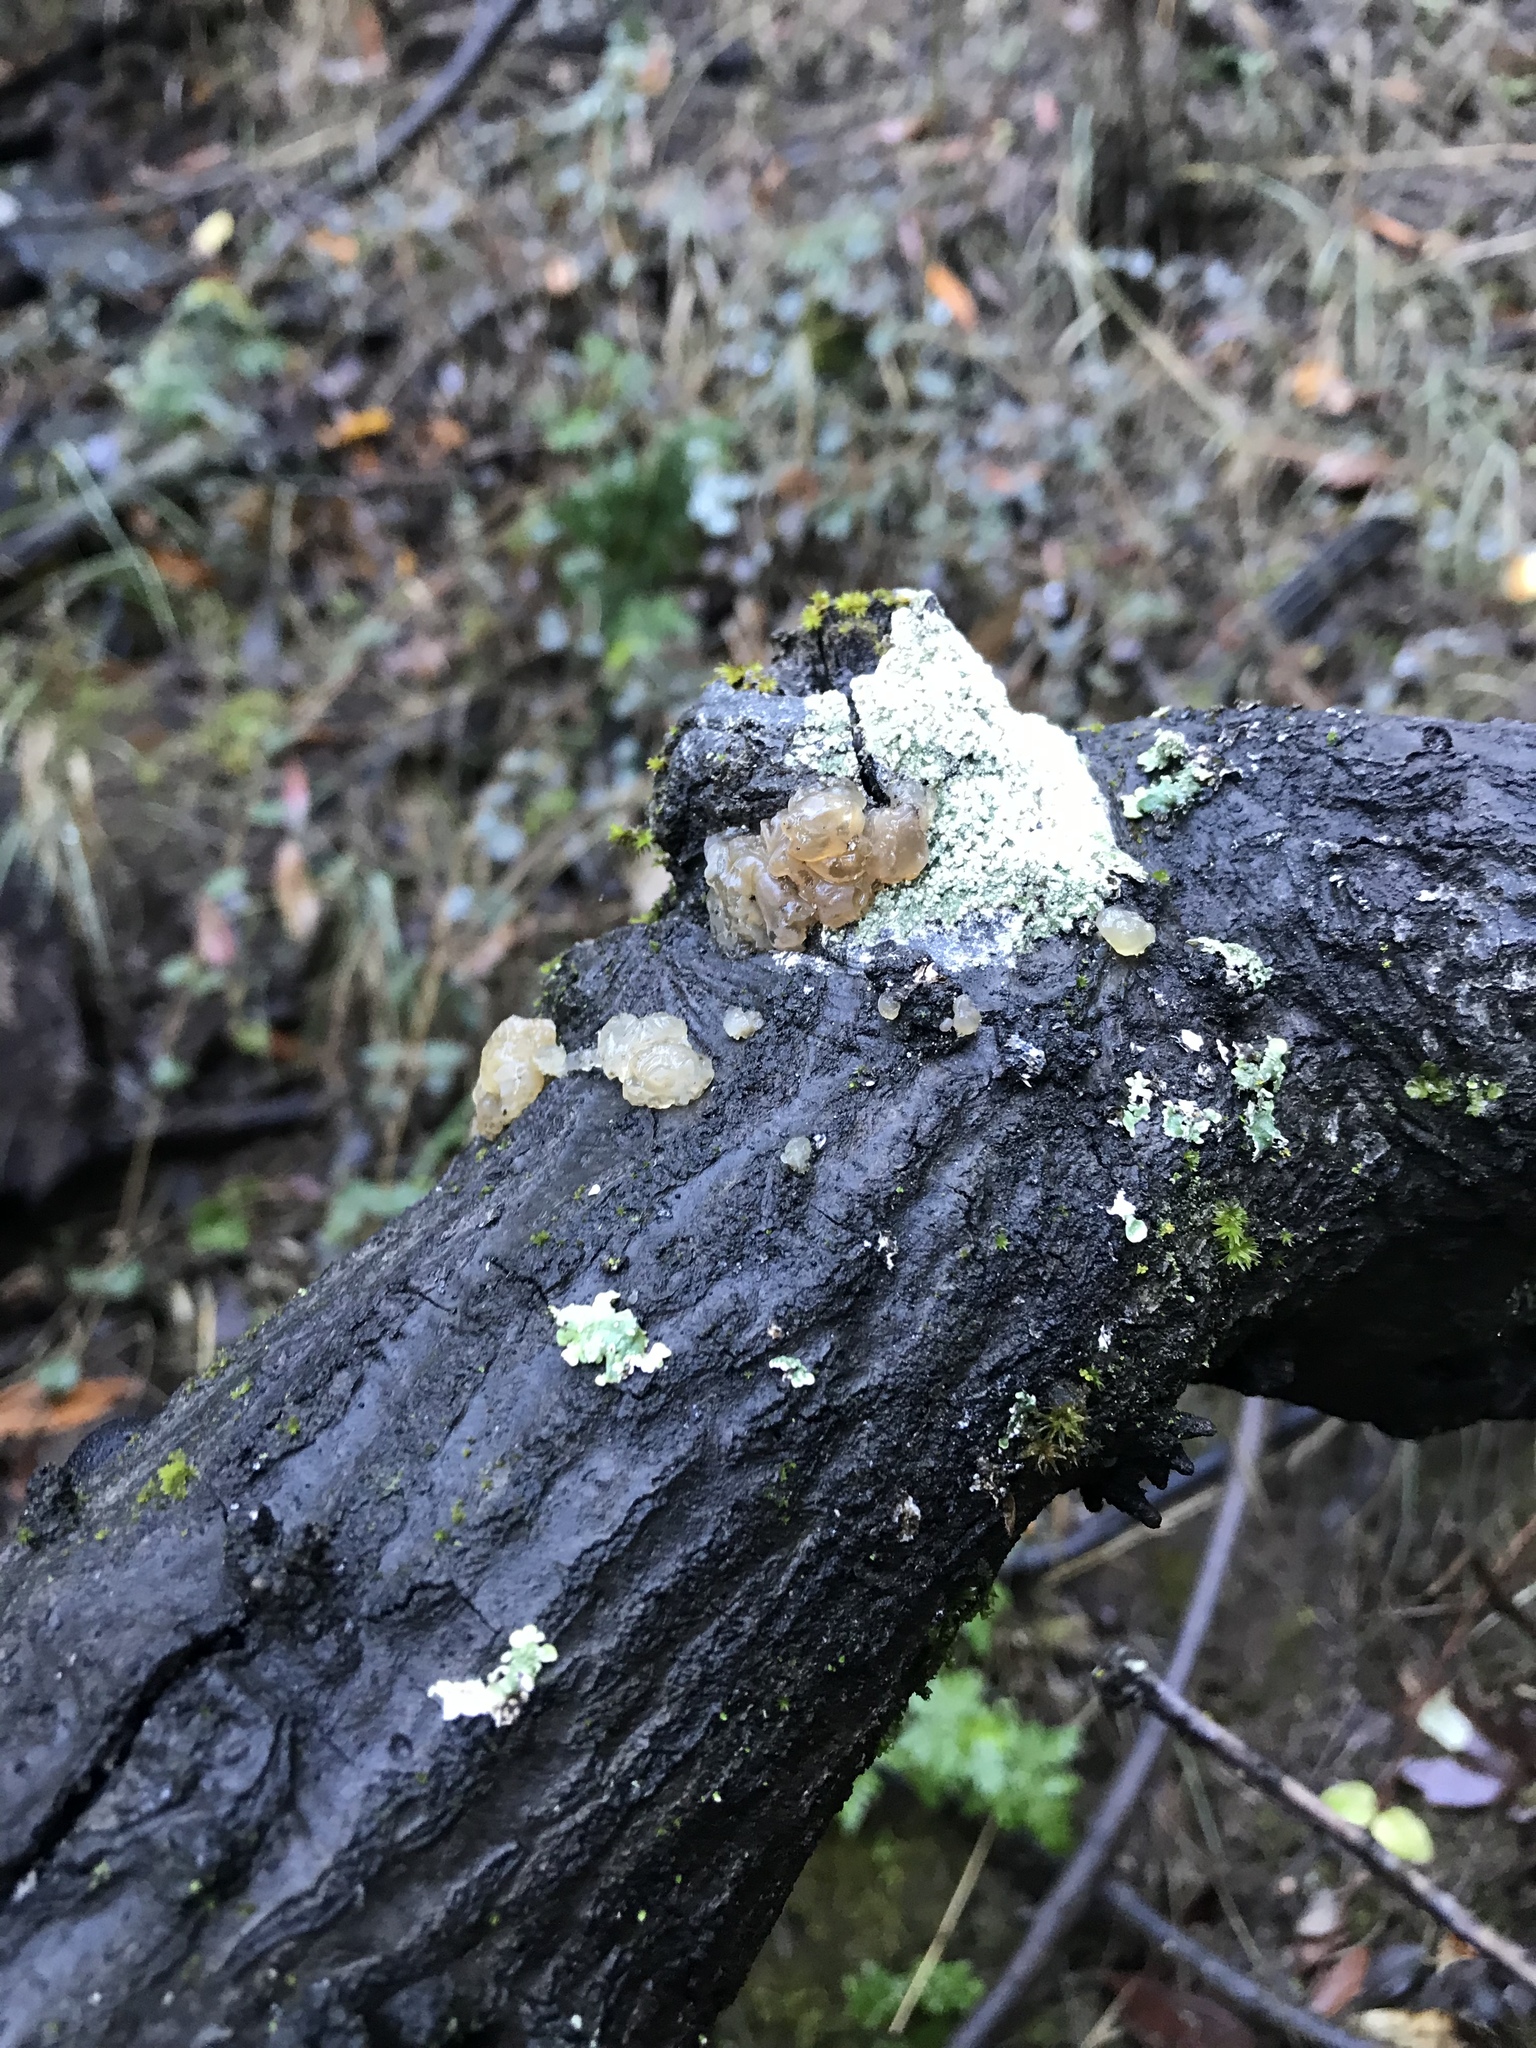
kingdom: Fungi
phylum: Basidiomycota
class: Agaricomycetes
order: Auriculariales
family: Hyaloriaceae
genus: Myxarium
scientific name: Myxarium nucleatum
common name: Crystal brain fungus
